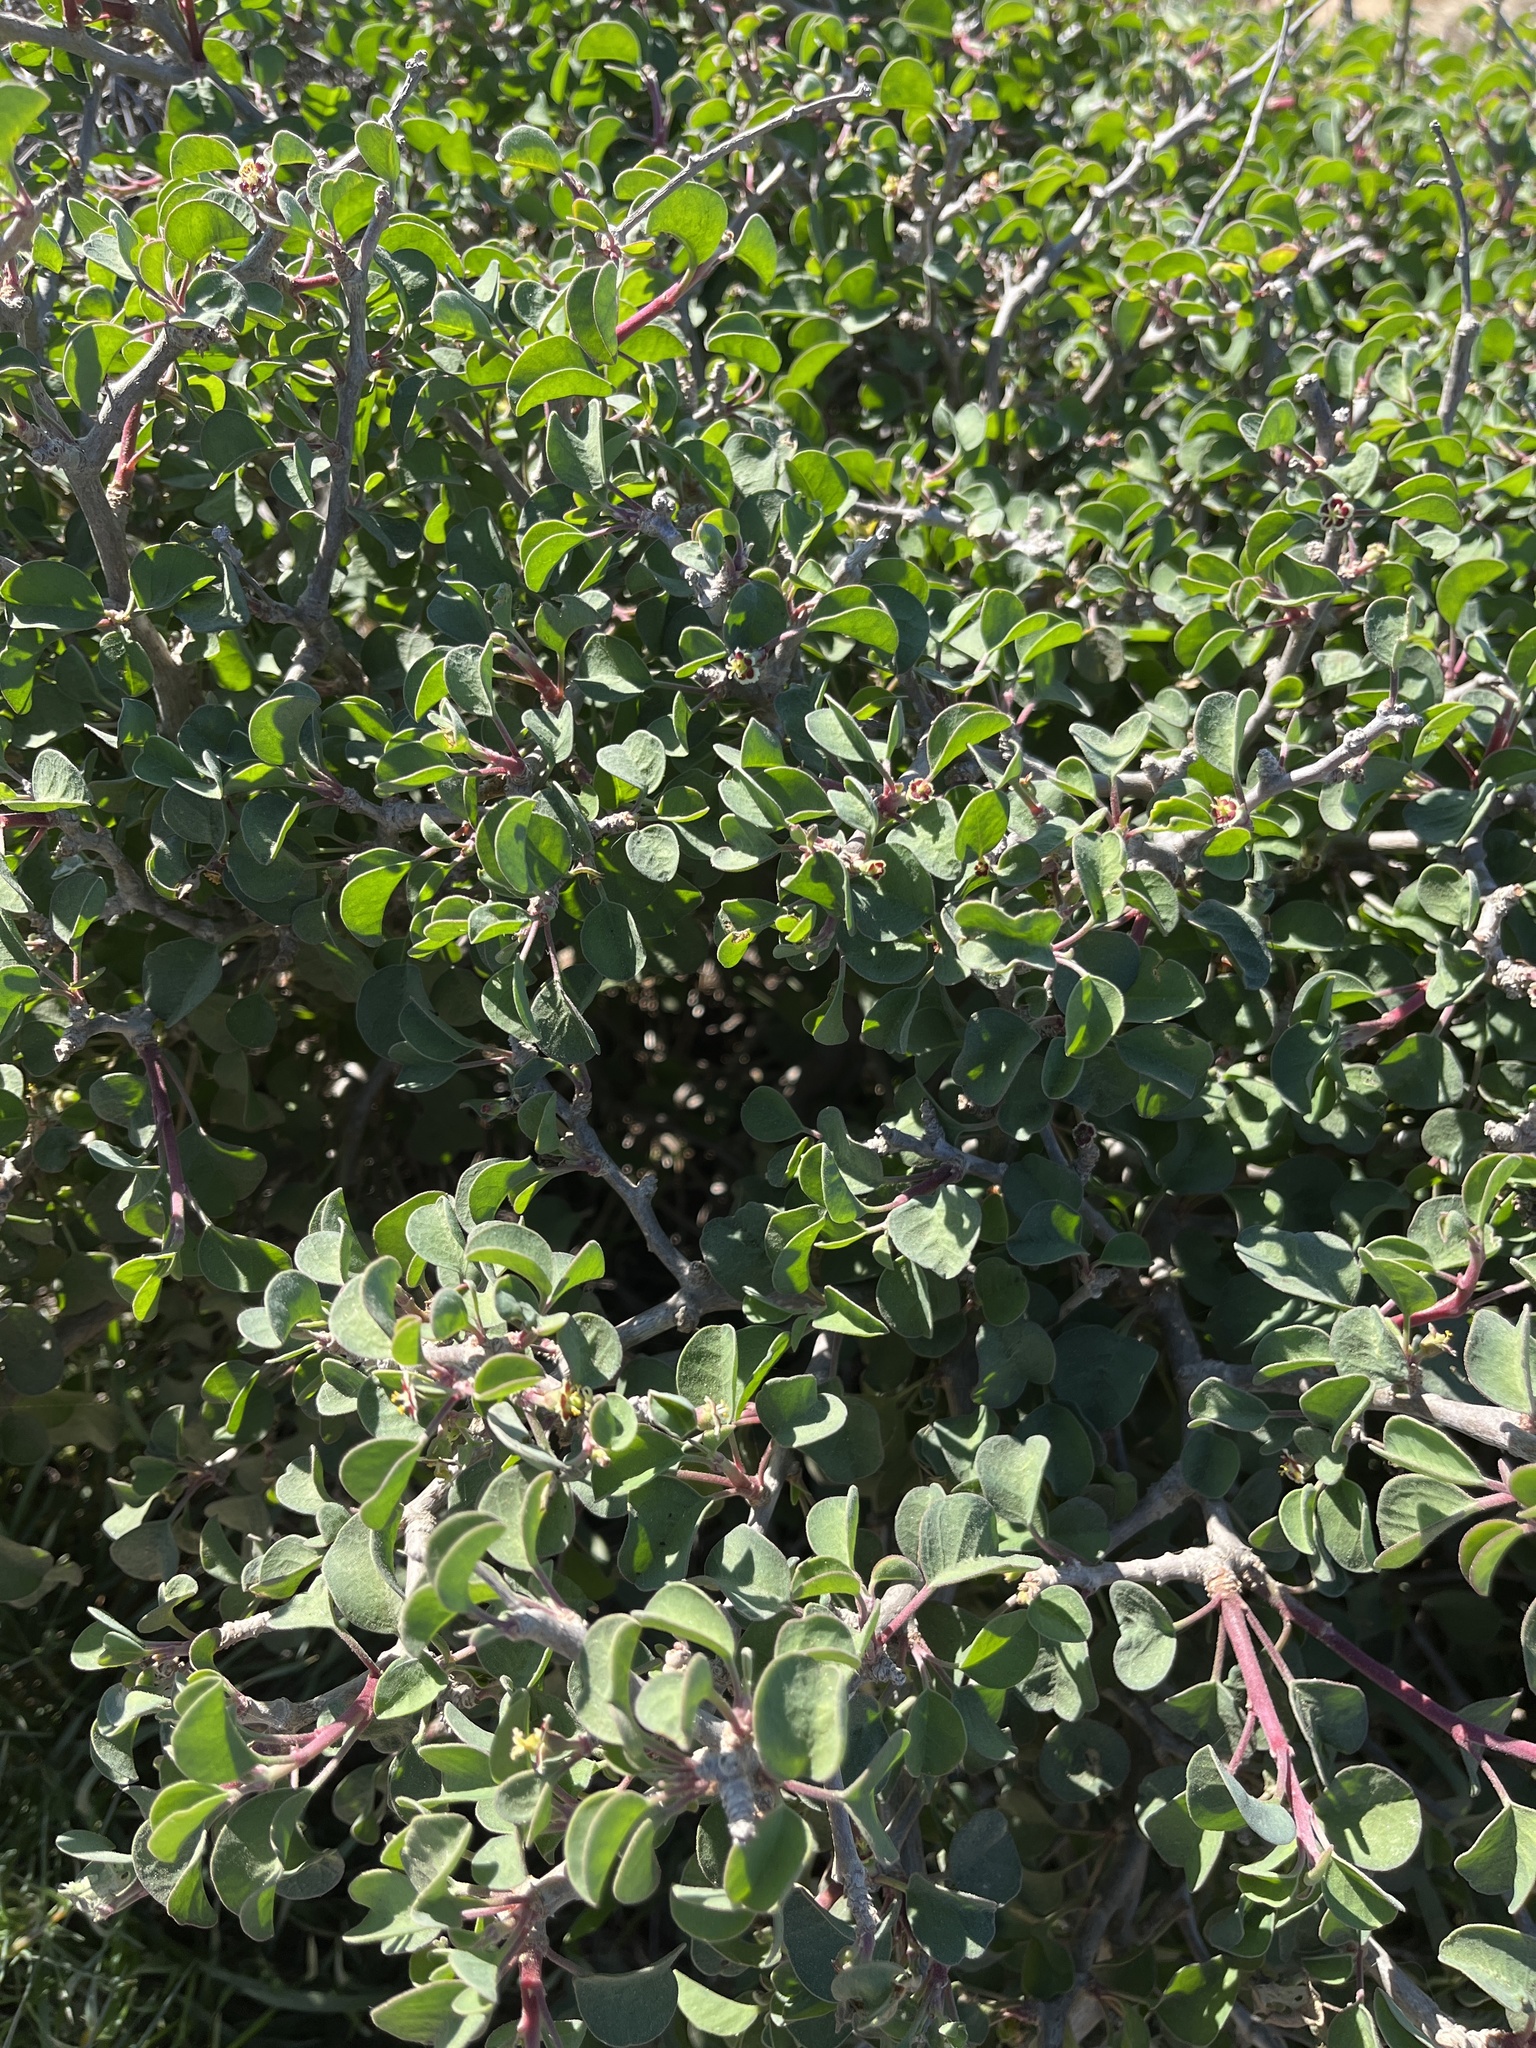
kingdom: Plantae
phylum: Tracheophyta
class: Magnoliopsida
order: Malpighiales
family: Euphorbiaceae
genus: Euphorbia
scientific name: Euphorbia misera
